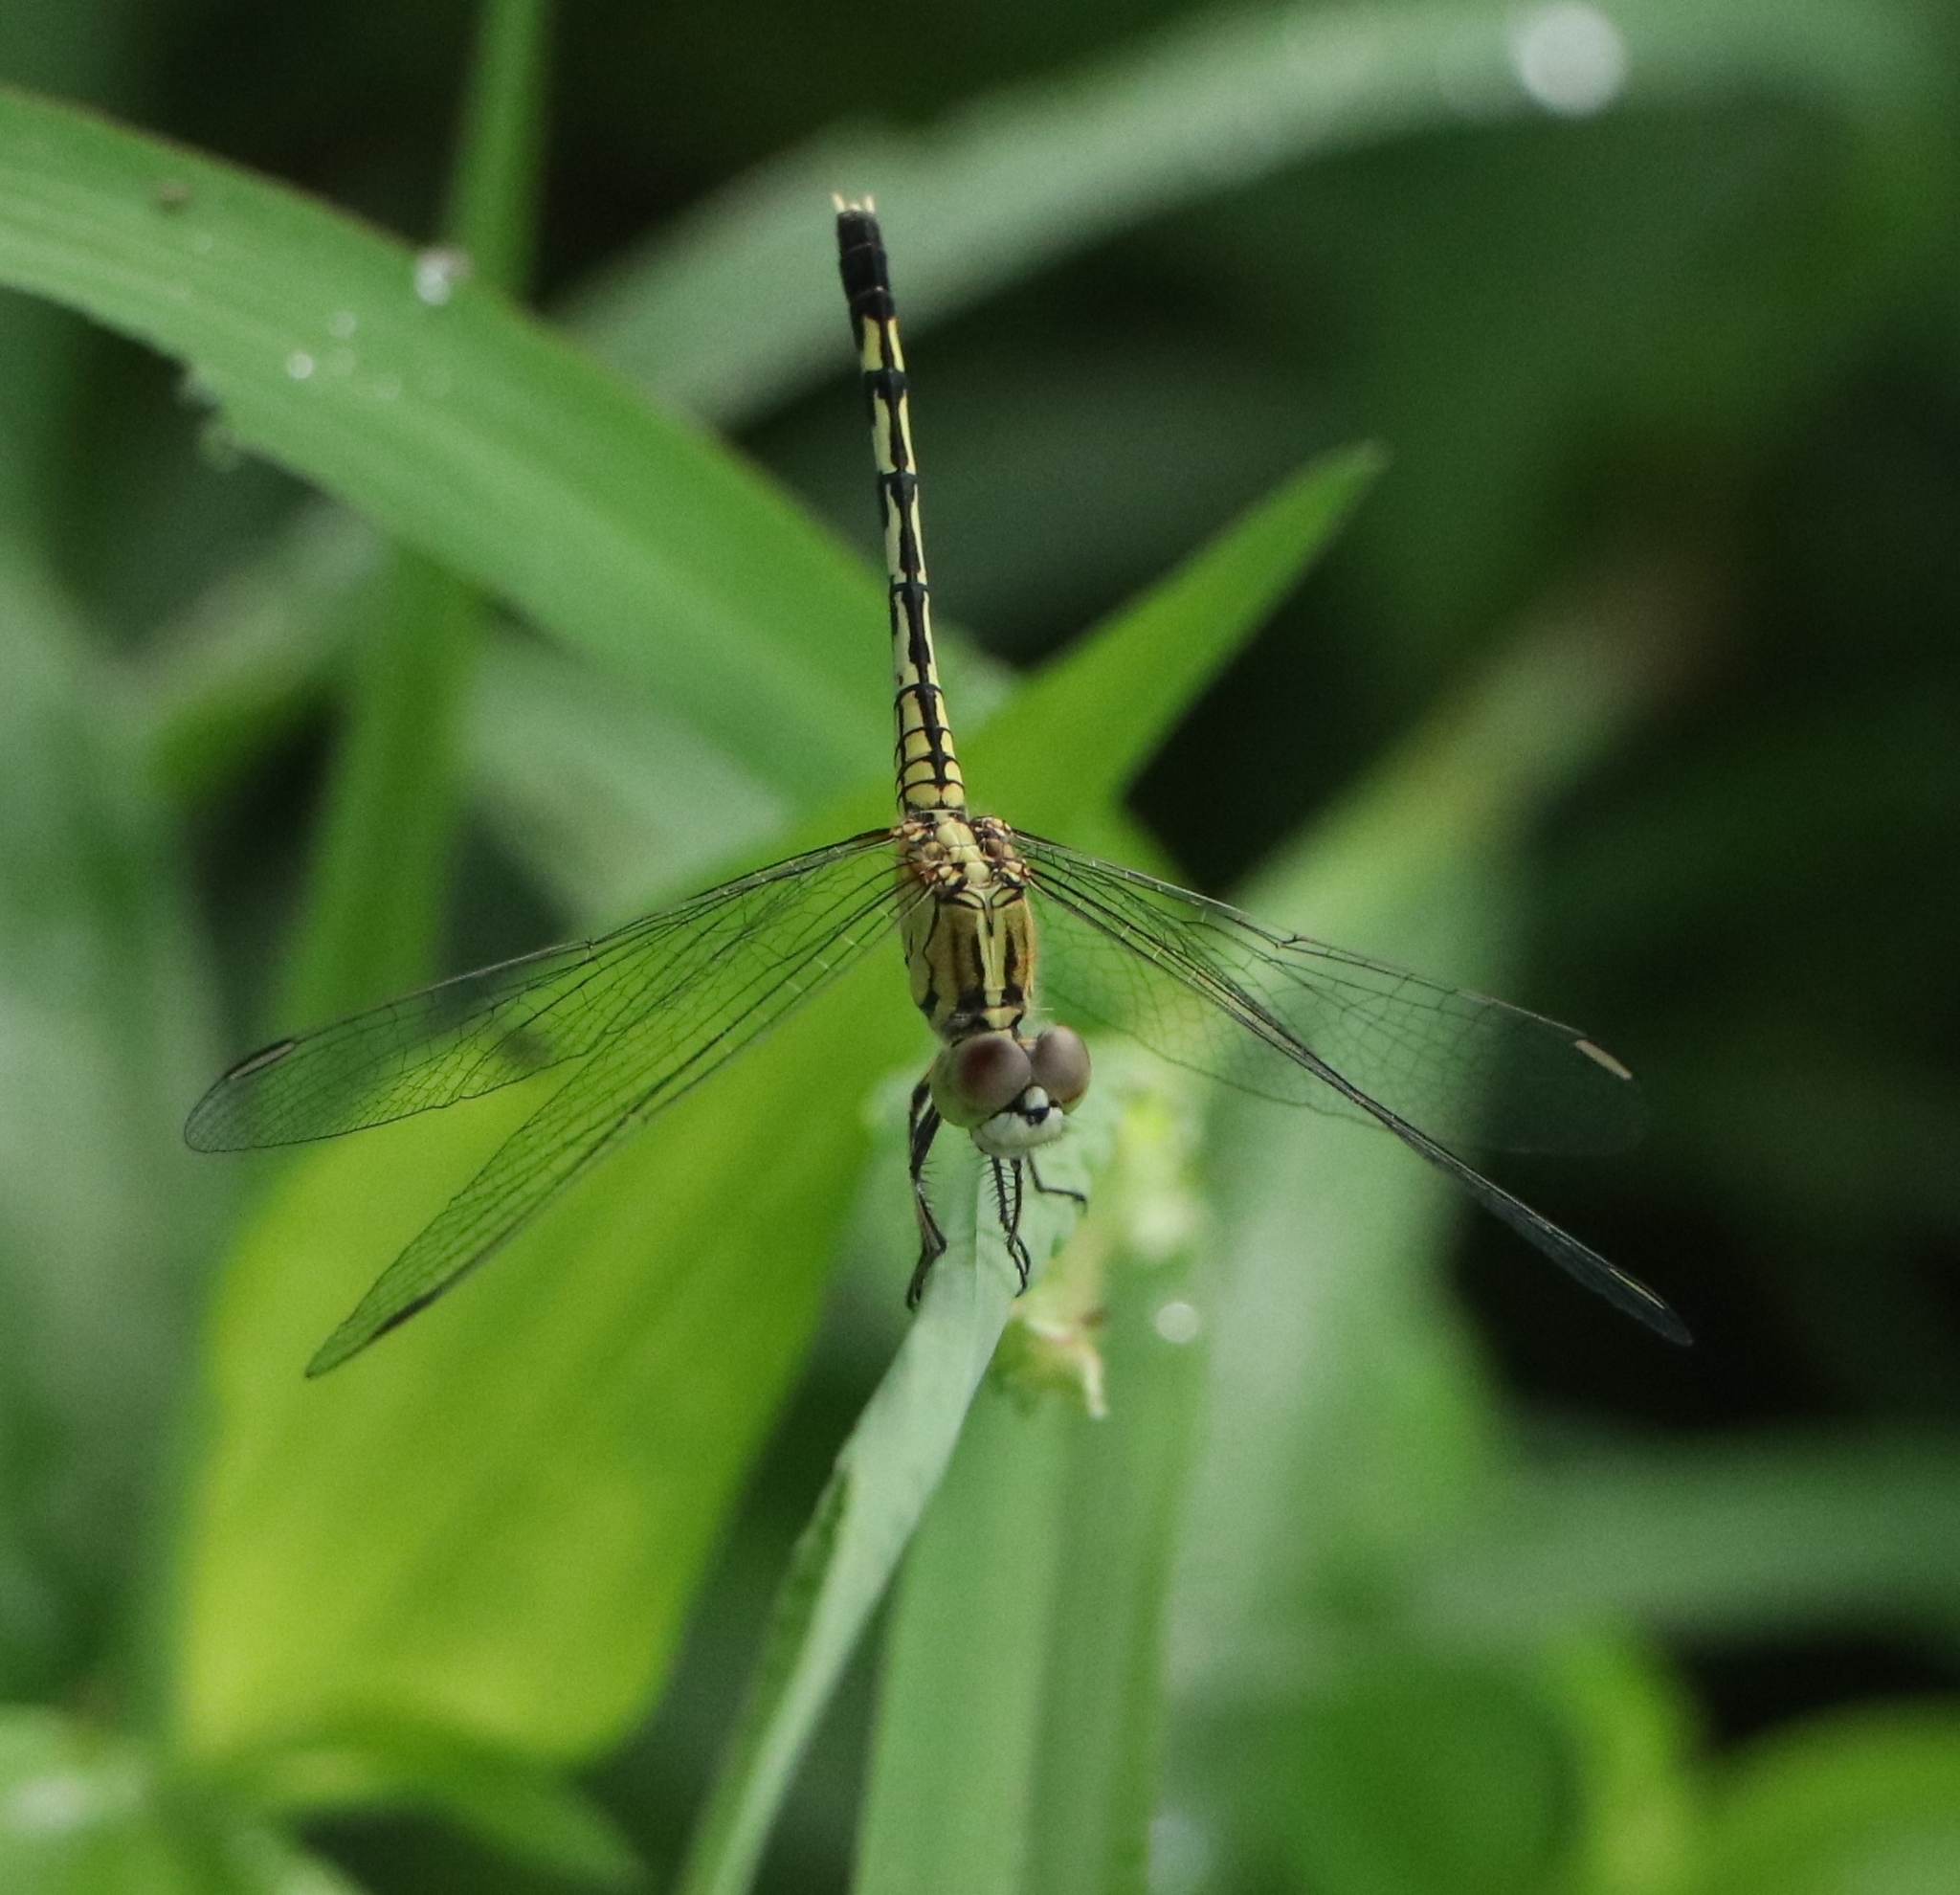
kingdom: Animalia
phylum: Arthropoda
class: Insecta
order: Odonata
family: Libellulidae
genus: Diplacodes
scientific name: Diplacodes trivialis
